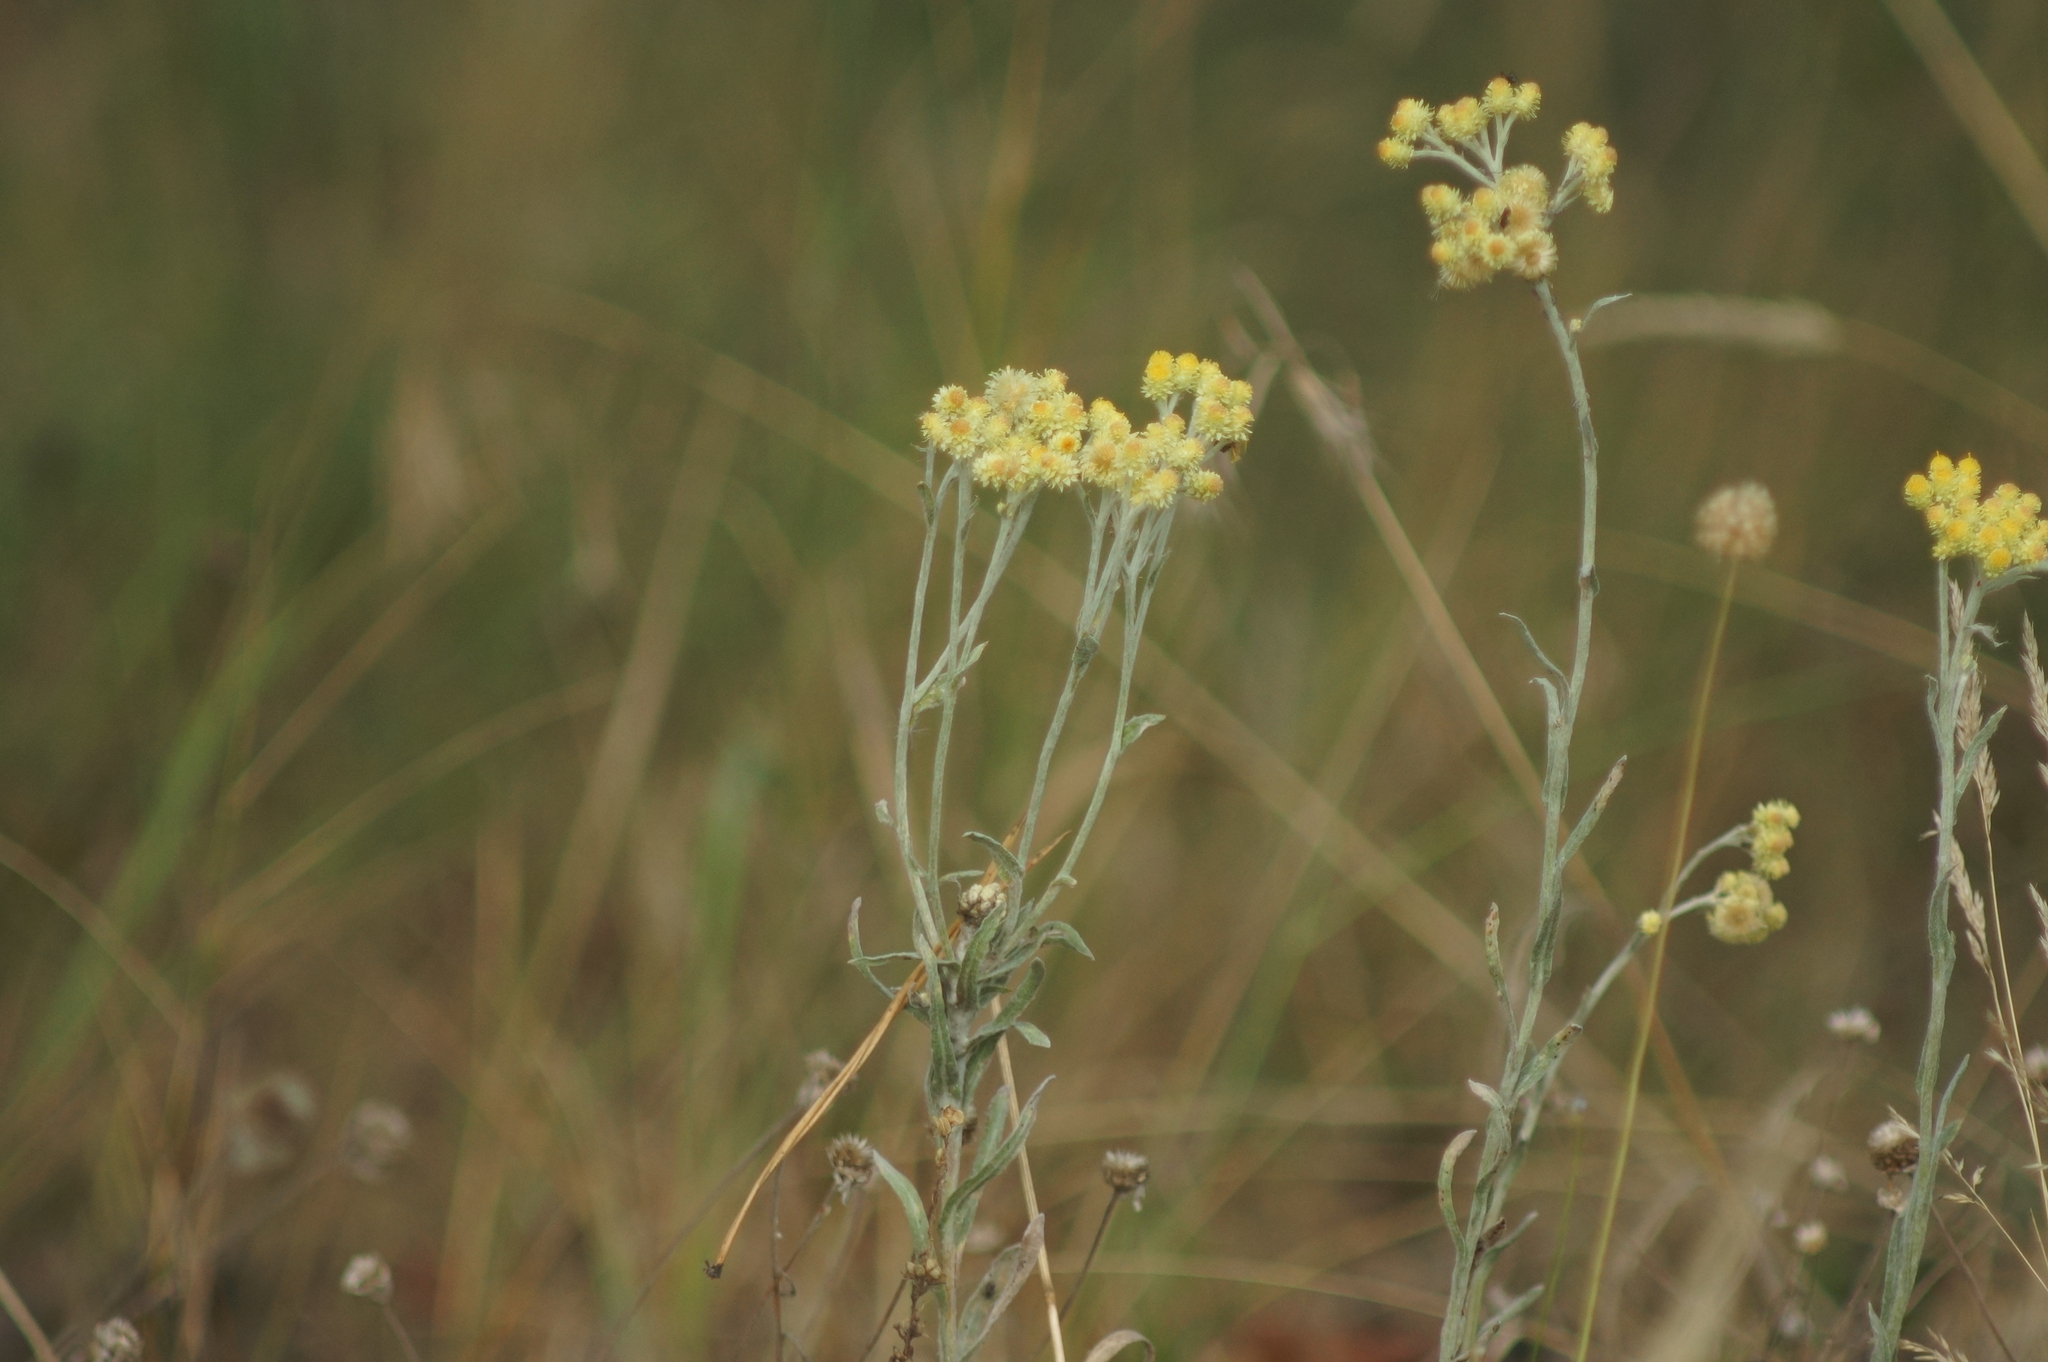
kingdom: Plantae
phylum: Tracheophyta
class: Magnoliopsida
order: Asterales
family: Asteraceae
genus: Helichrysum
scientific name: Helichrysum arenarium
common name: Strawflower
